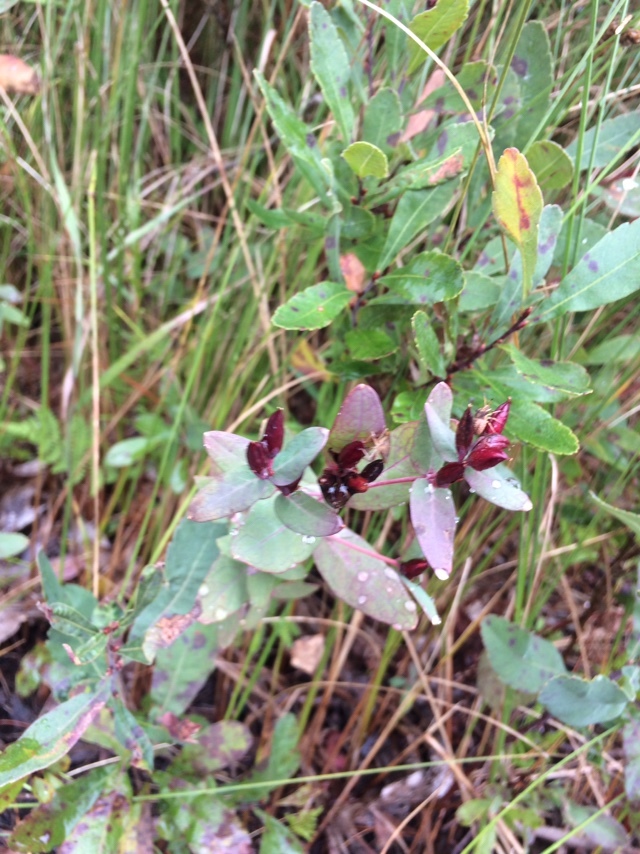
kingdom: Plantae
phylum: Tracheophyta
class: Magnoliopsida
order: Malpighiales
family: Hypericaceae
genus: Triadenum
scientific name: Triadenum fraseri
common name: Fraser's marsh st. johnswort
